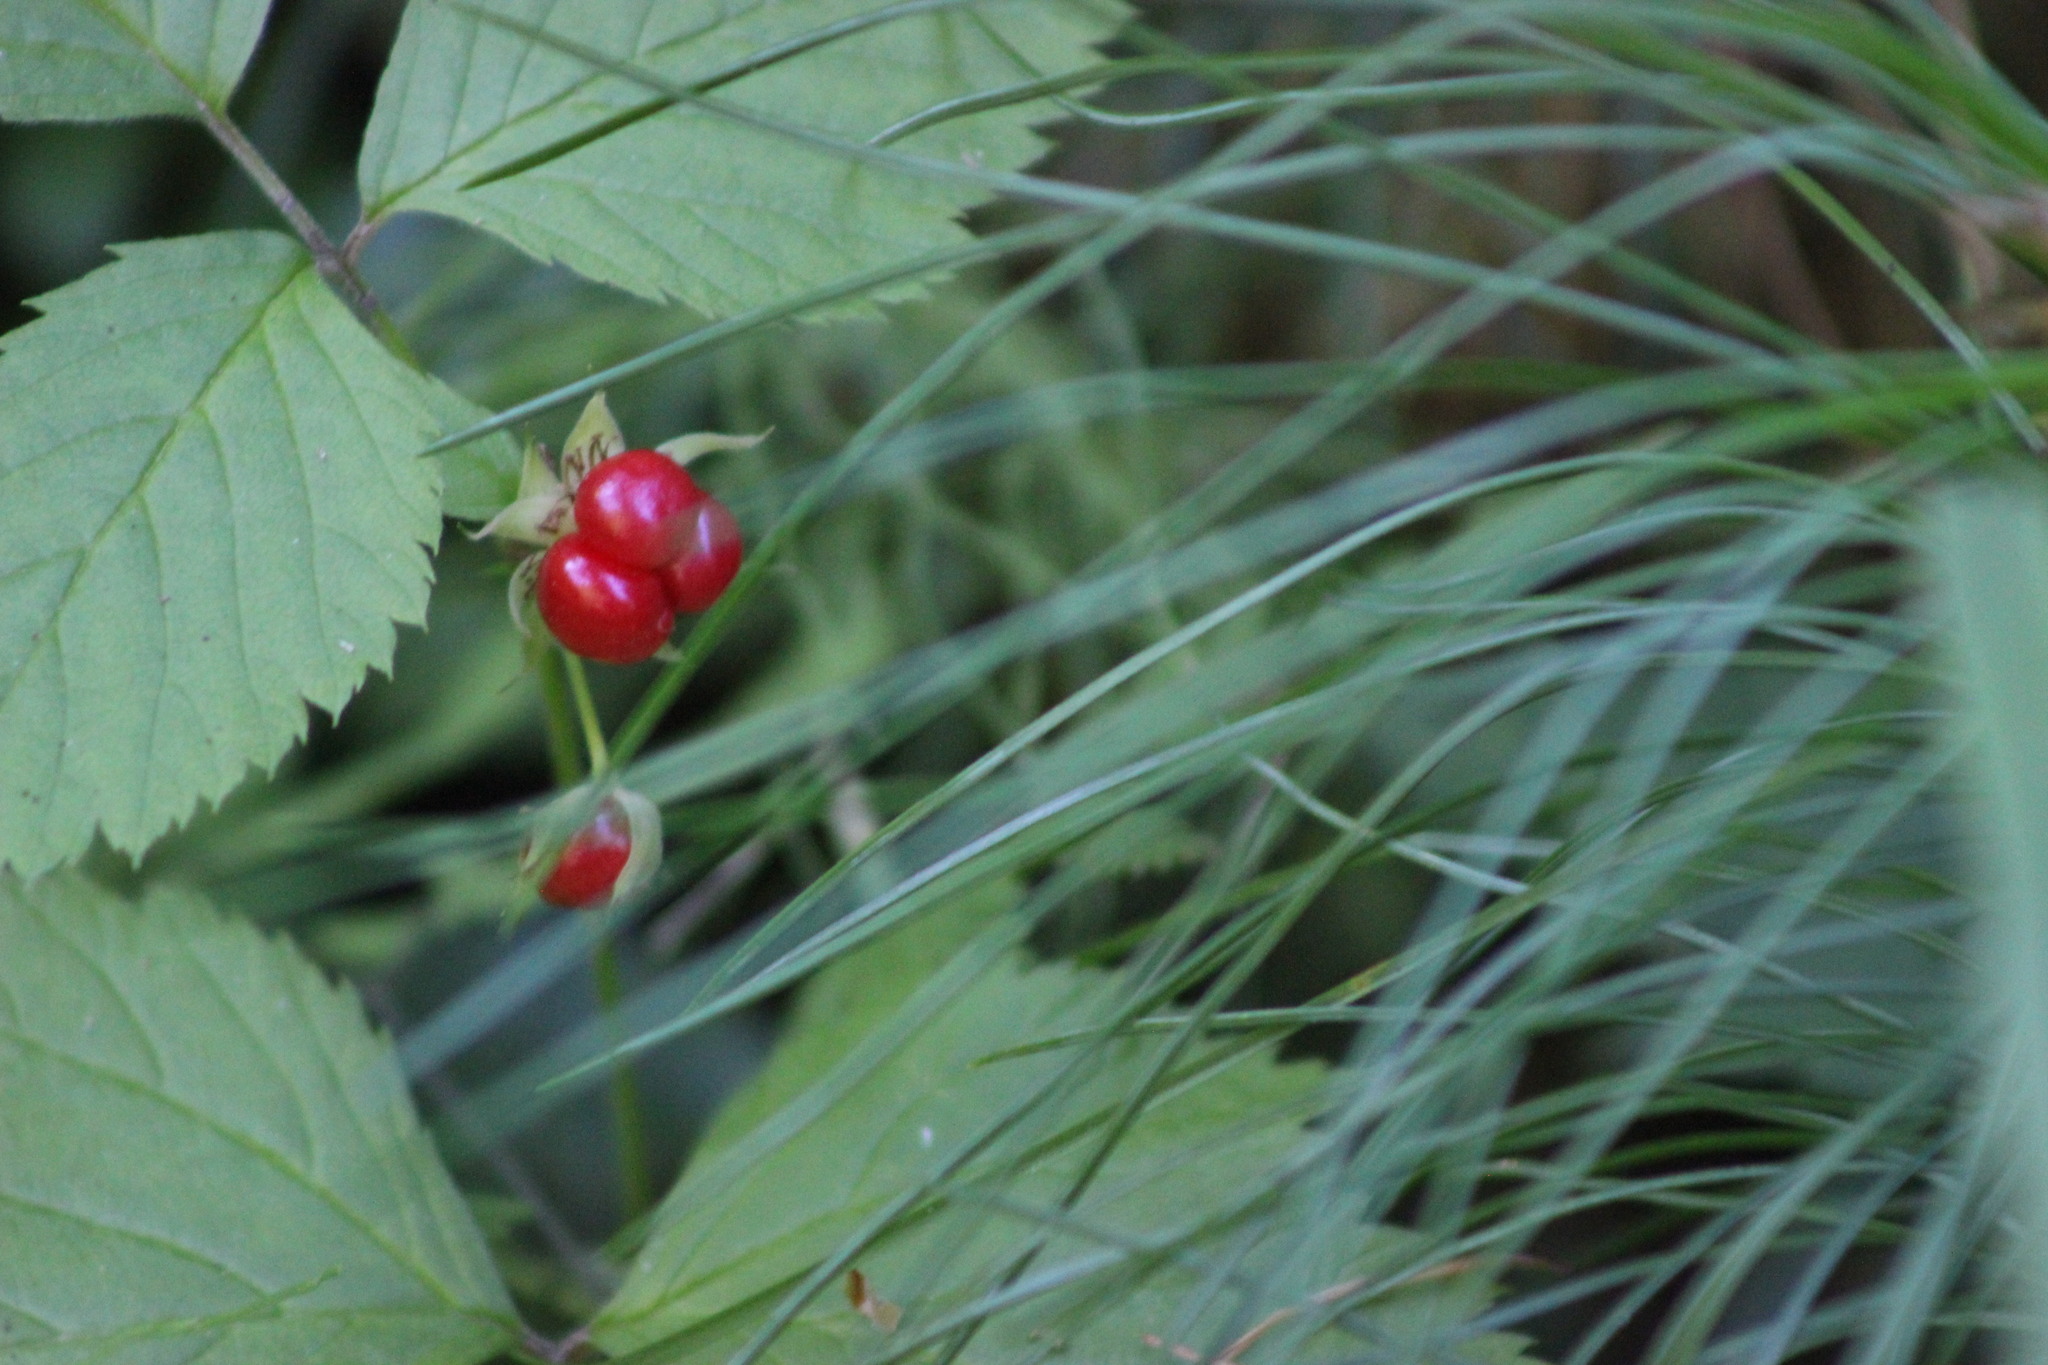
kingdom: Plantae
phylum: Tracheophyta
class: Magnoliopsida
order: Rosales
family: Rosaceae
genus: Rubus
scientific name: Rubus saxatilis
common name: Stone bramble
